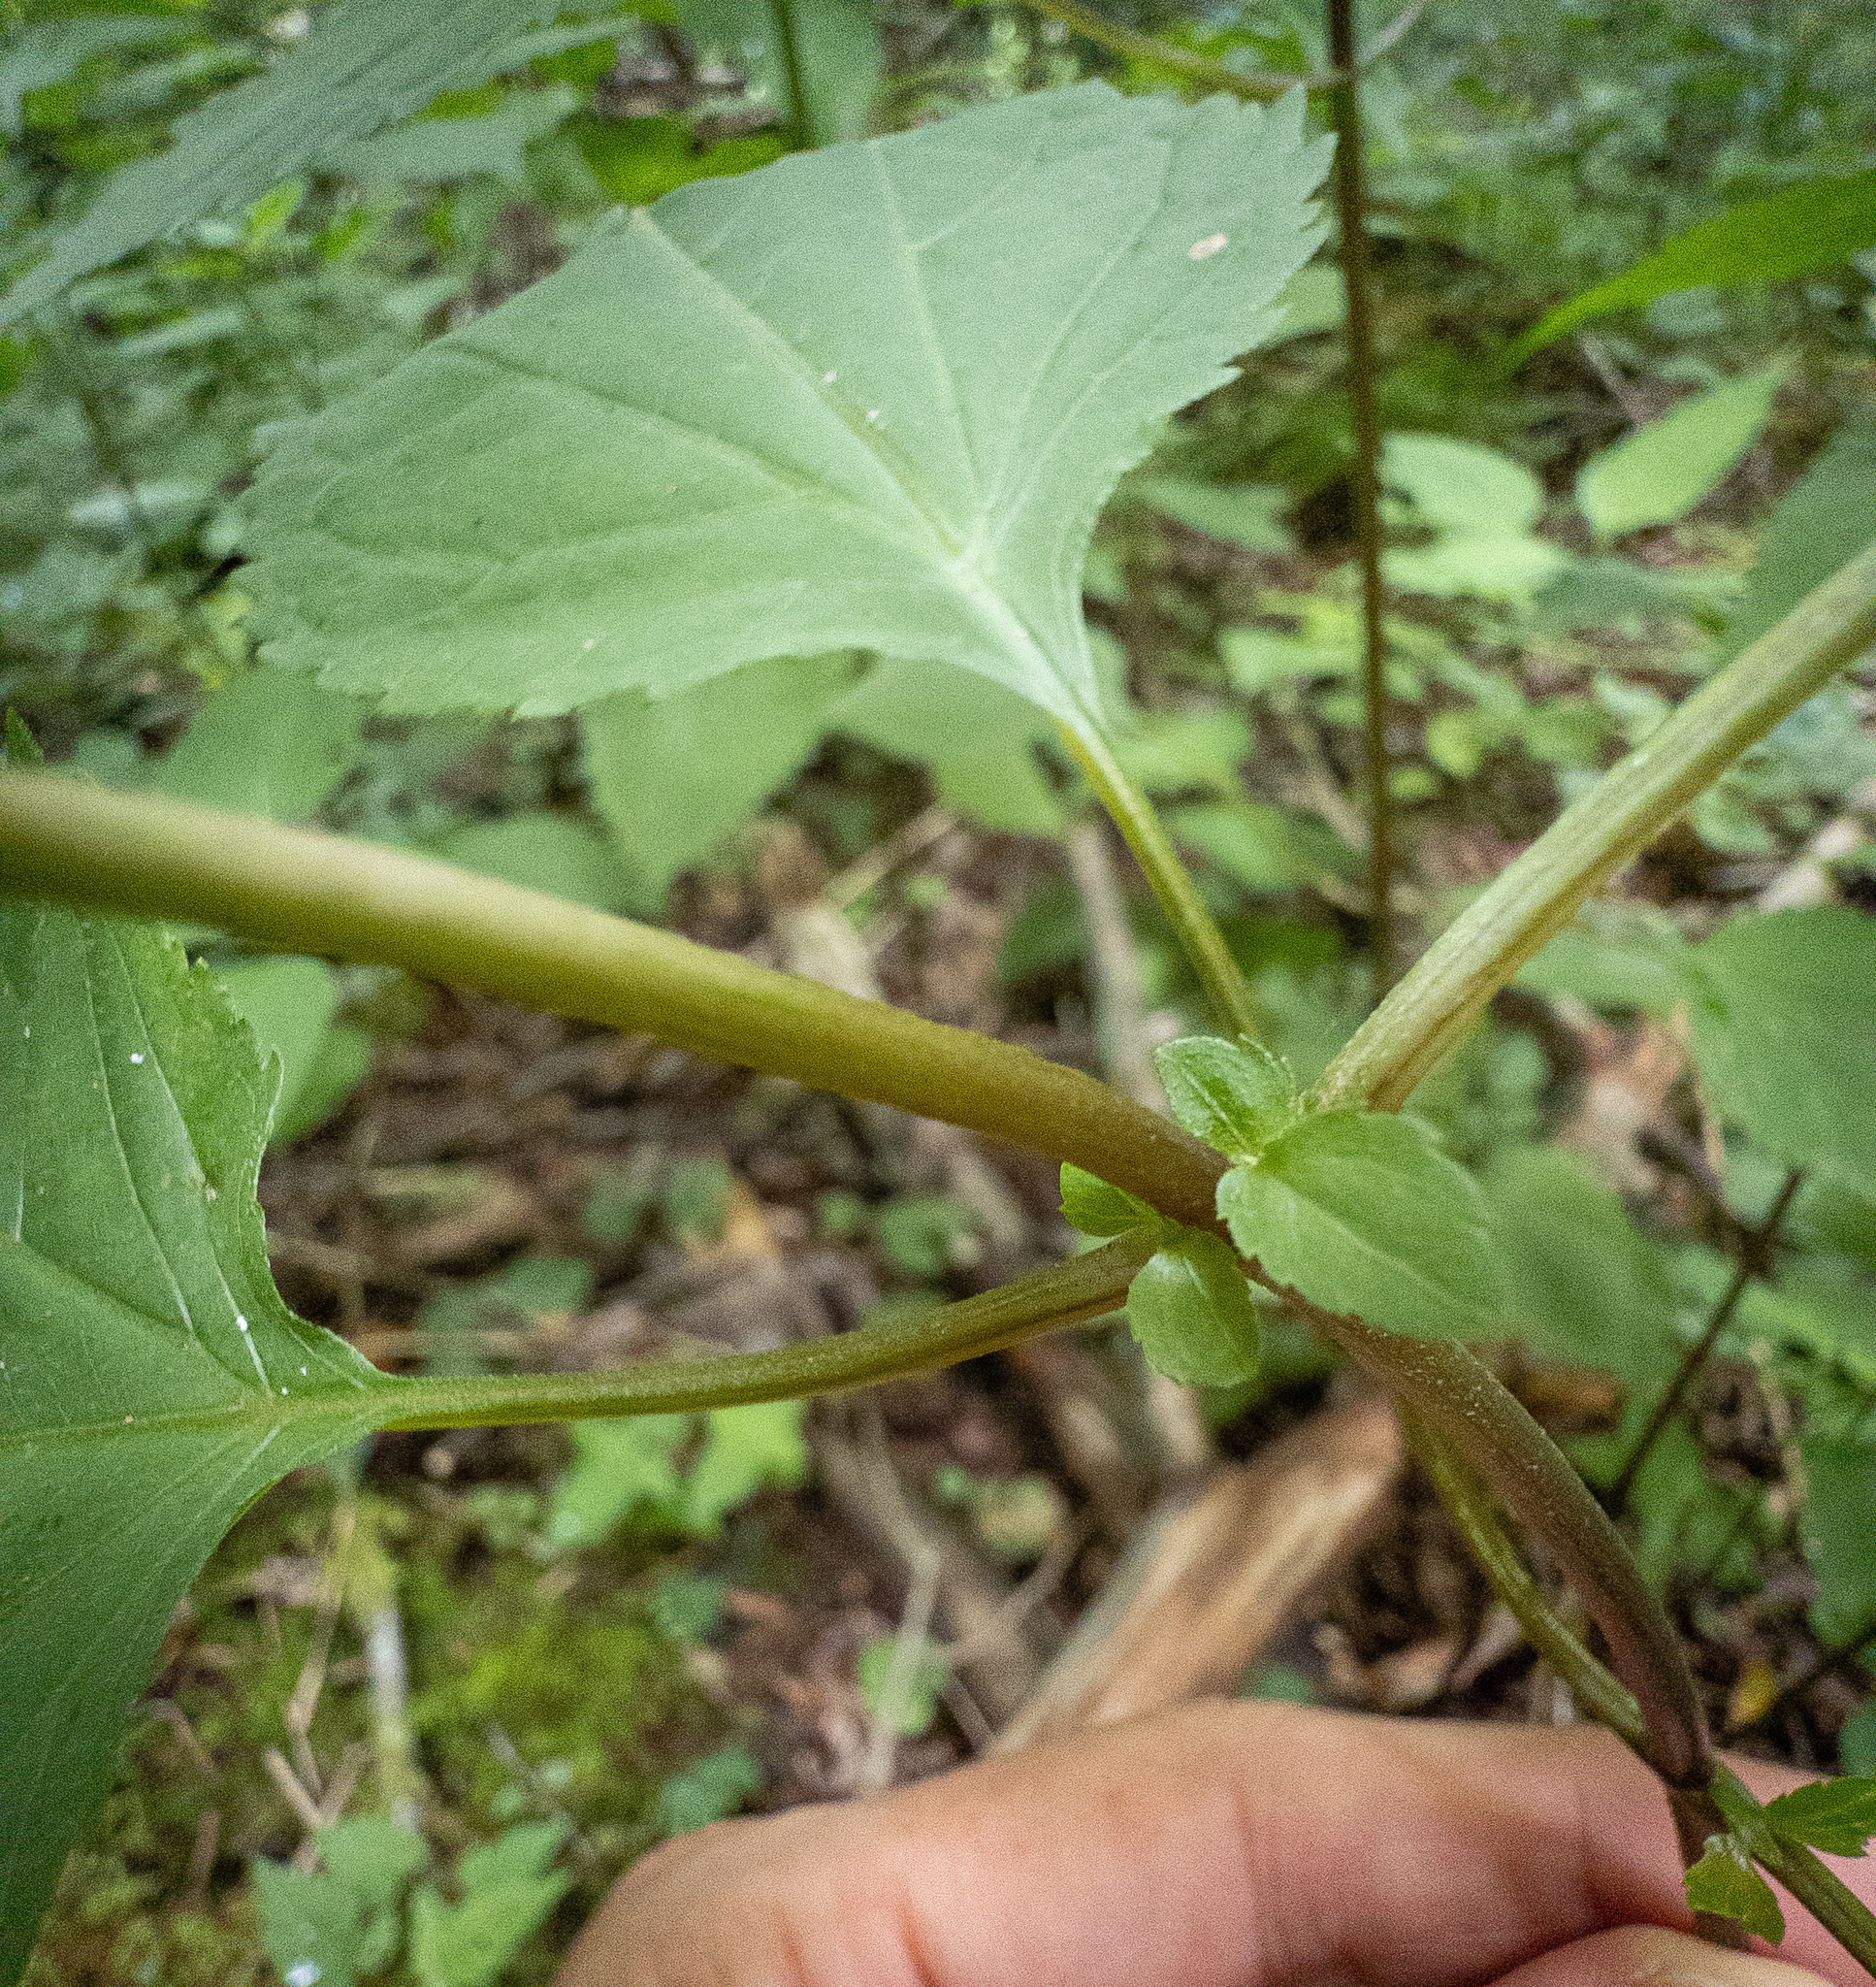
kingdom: Plantae
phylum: Tracheophyta
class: Magnoliopsida
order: Asterales
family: Asteraceae
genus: Ageratina
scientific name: Ageratina altissima
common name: White snakeroot
